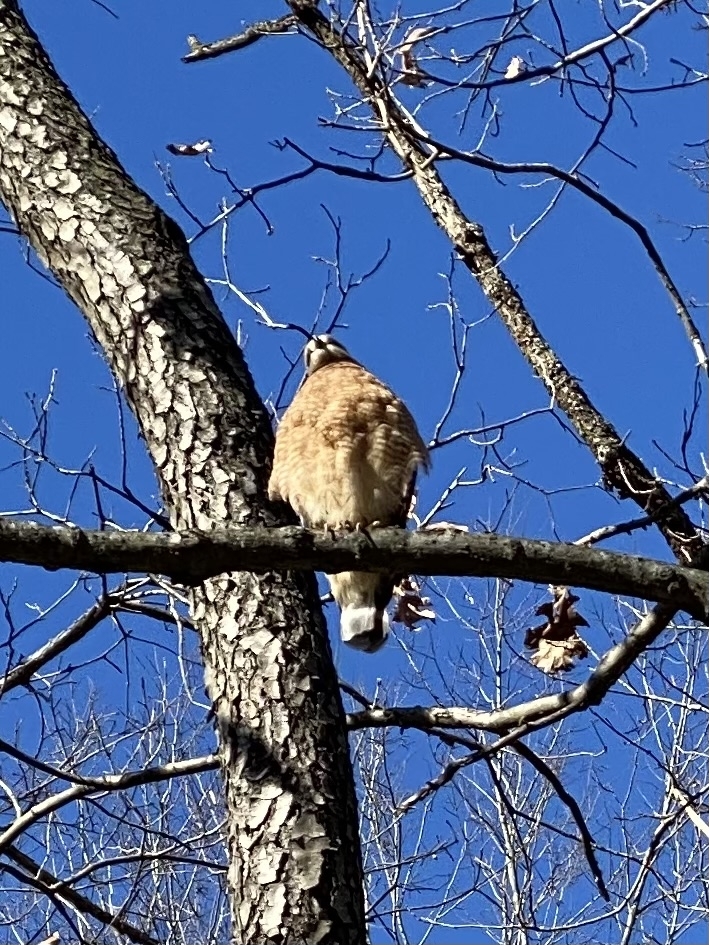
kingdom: Animalia
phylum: Chordata
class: Aves
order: Accipitriformes
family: Accipitridae
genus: Buteo
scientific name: Buteo lineatus
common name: Red-shouldered hawk
